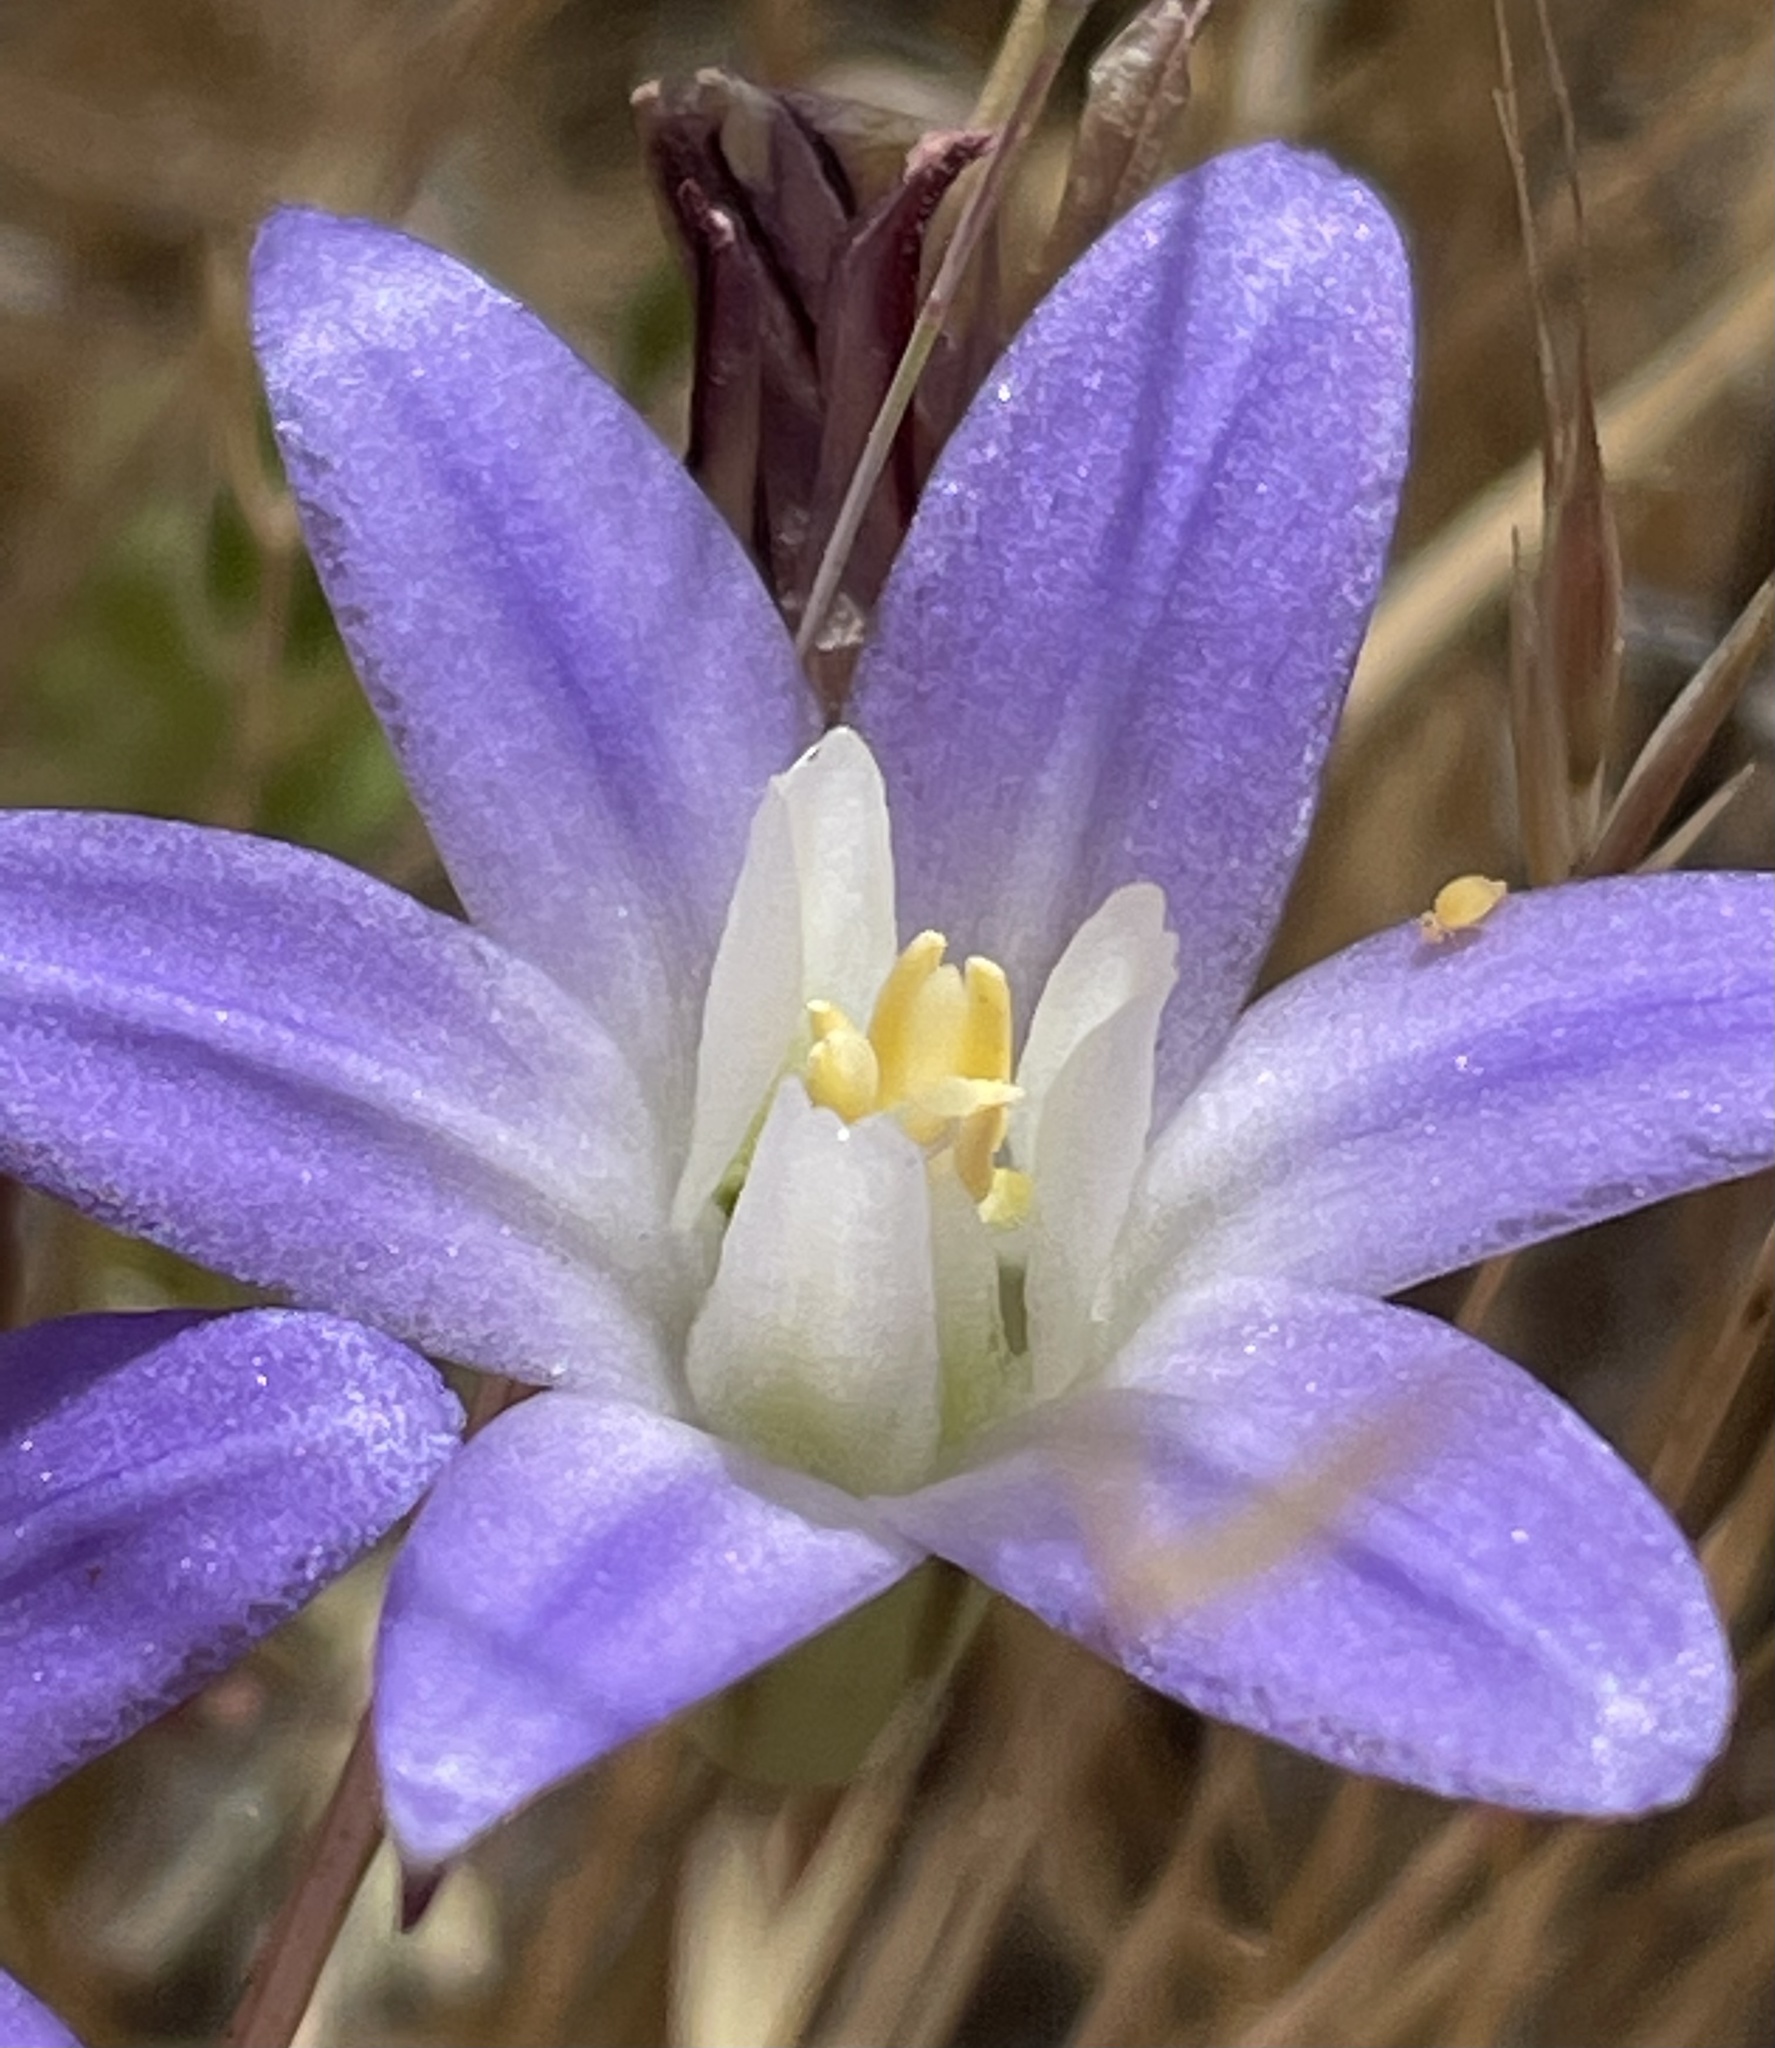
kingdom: Plantae
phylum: Tracheophyta
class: Liliopsida
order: Asparagales
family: Asparagaceae
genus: Brodiaea
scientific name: Brodiaea terrestris
